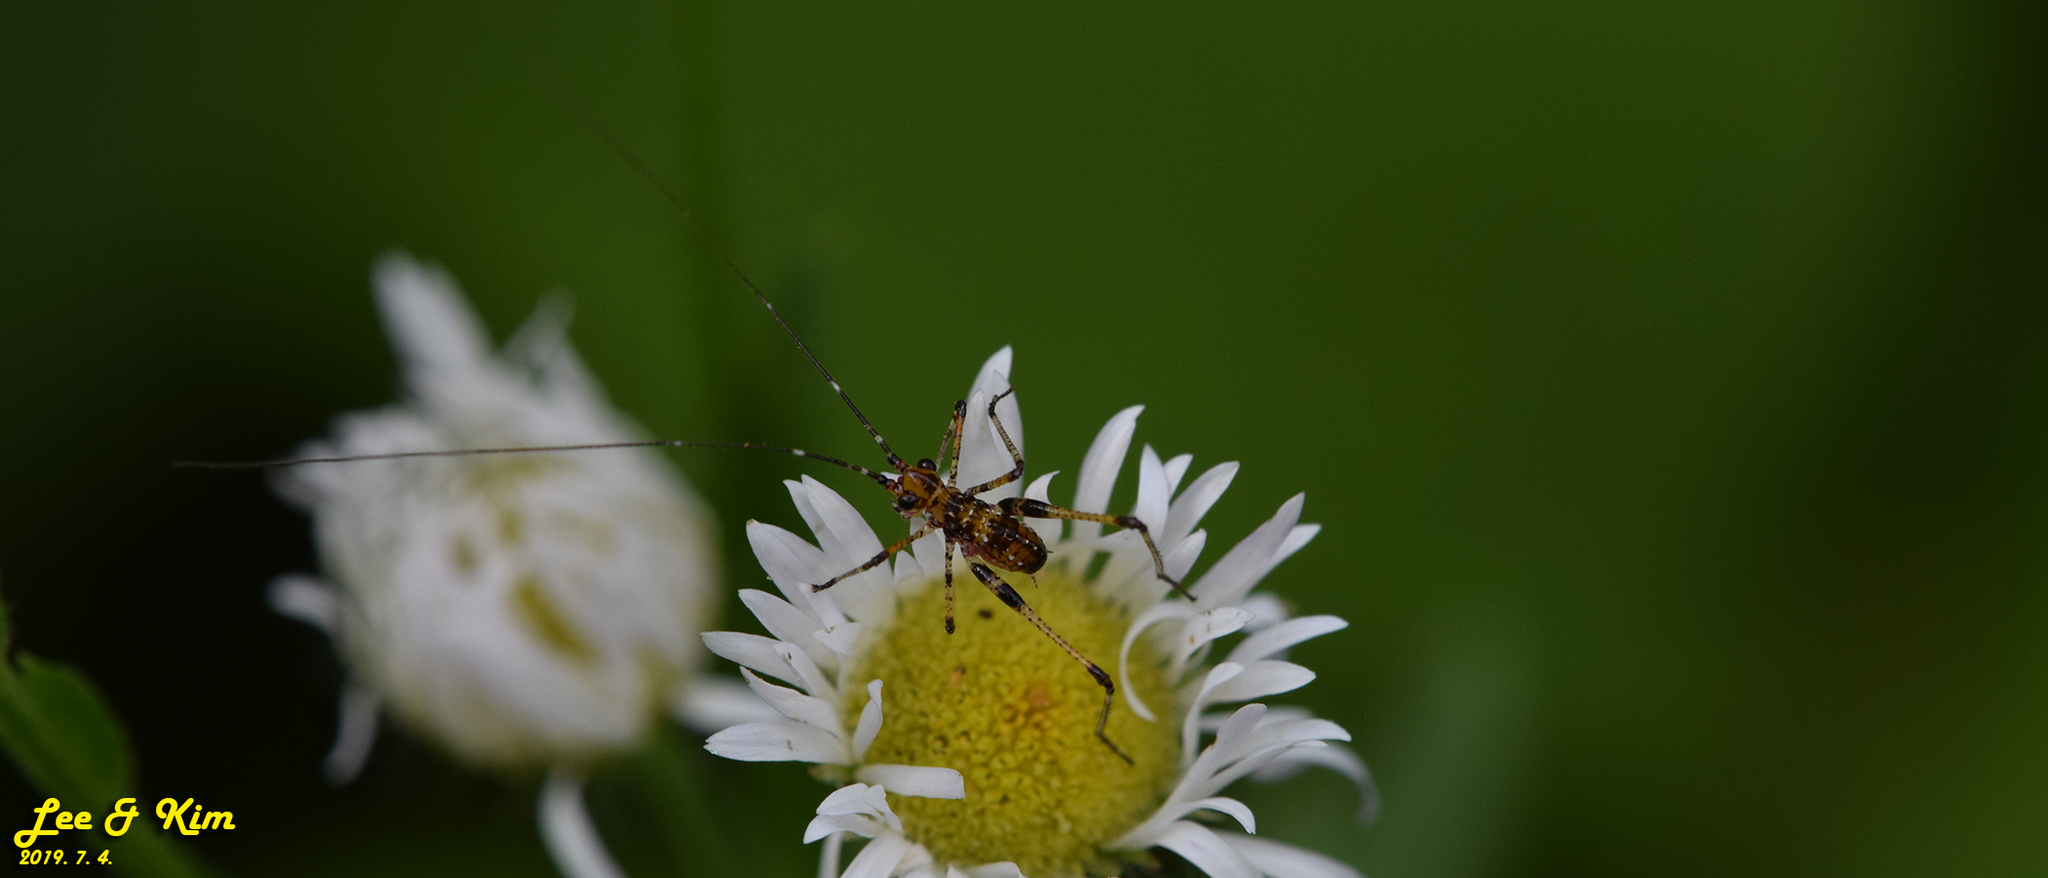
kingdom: Animalia
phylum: Arthropoda
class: Insecta
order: Orthoptera
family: Tettigoniidae
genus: Phaneroptera
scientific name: Phaneroptera nigroantennata
